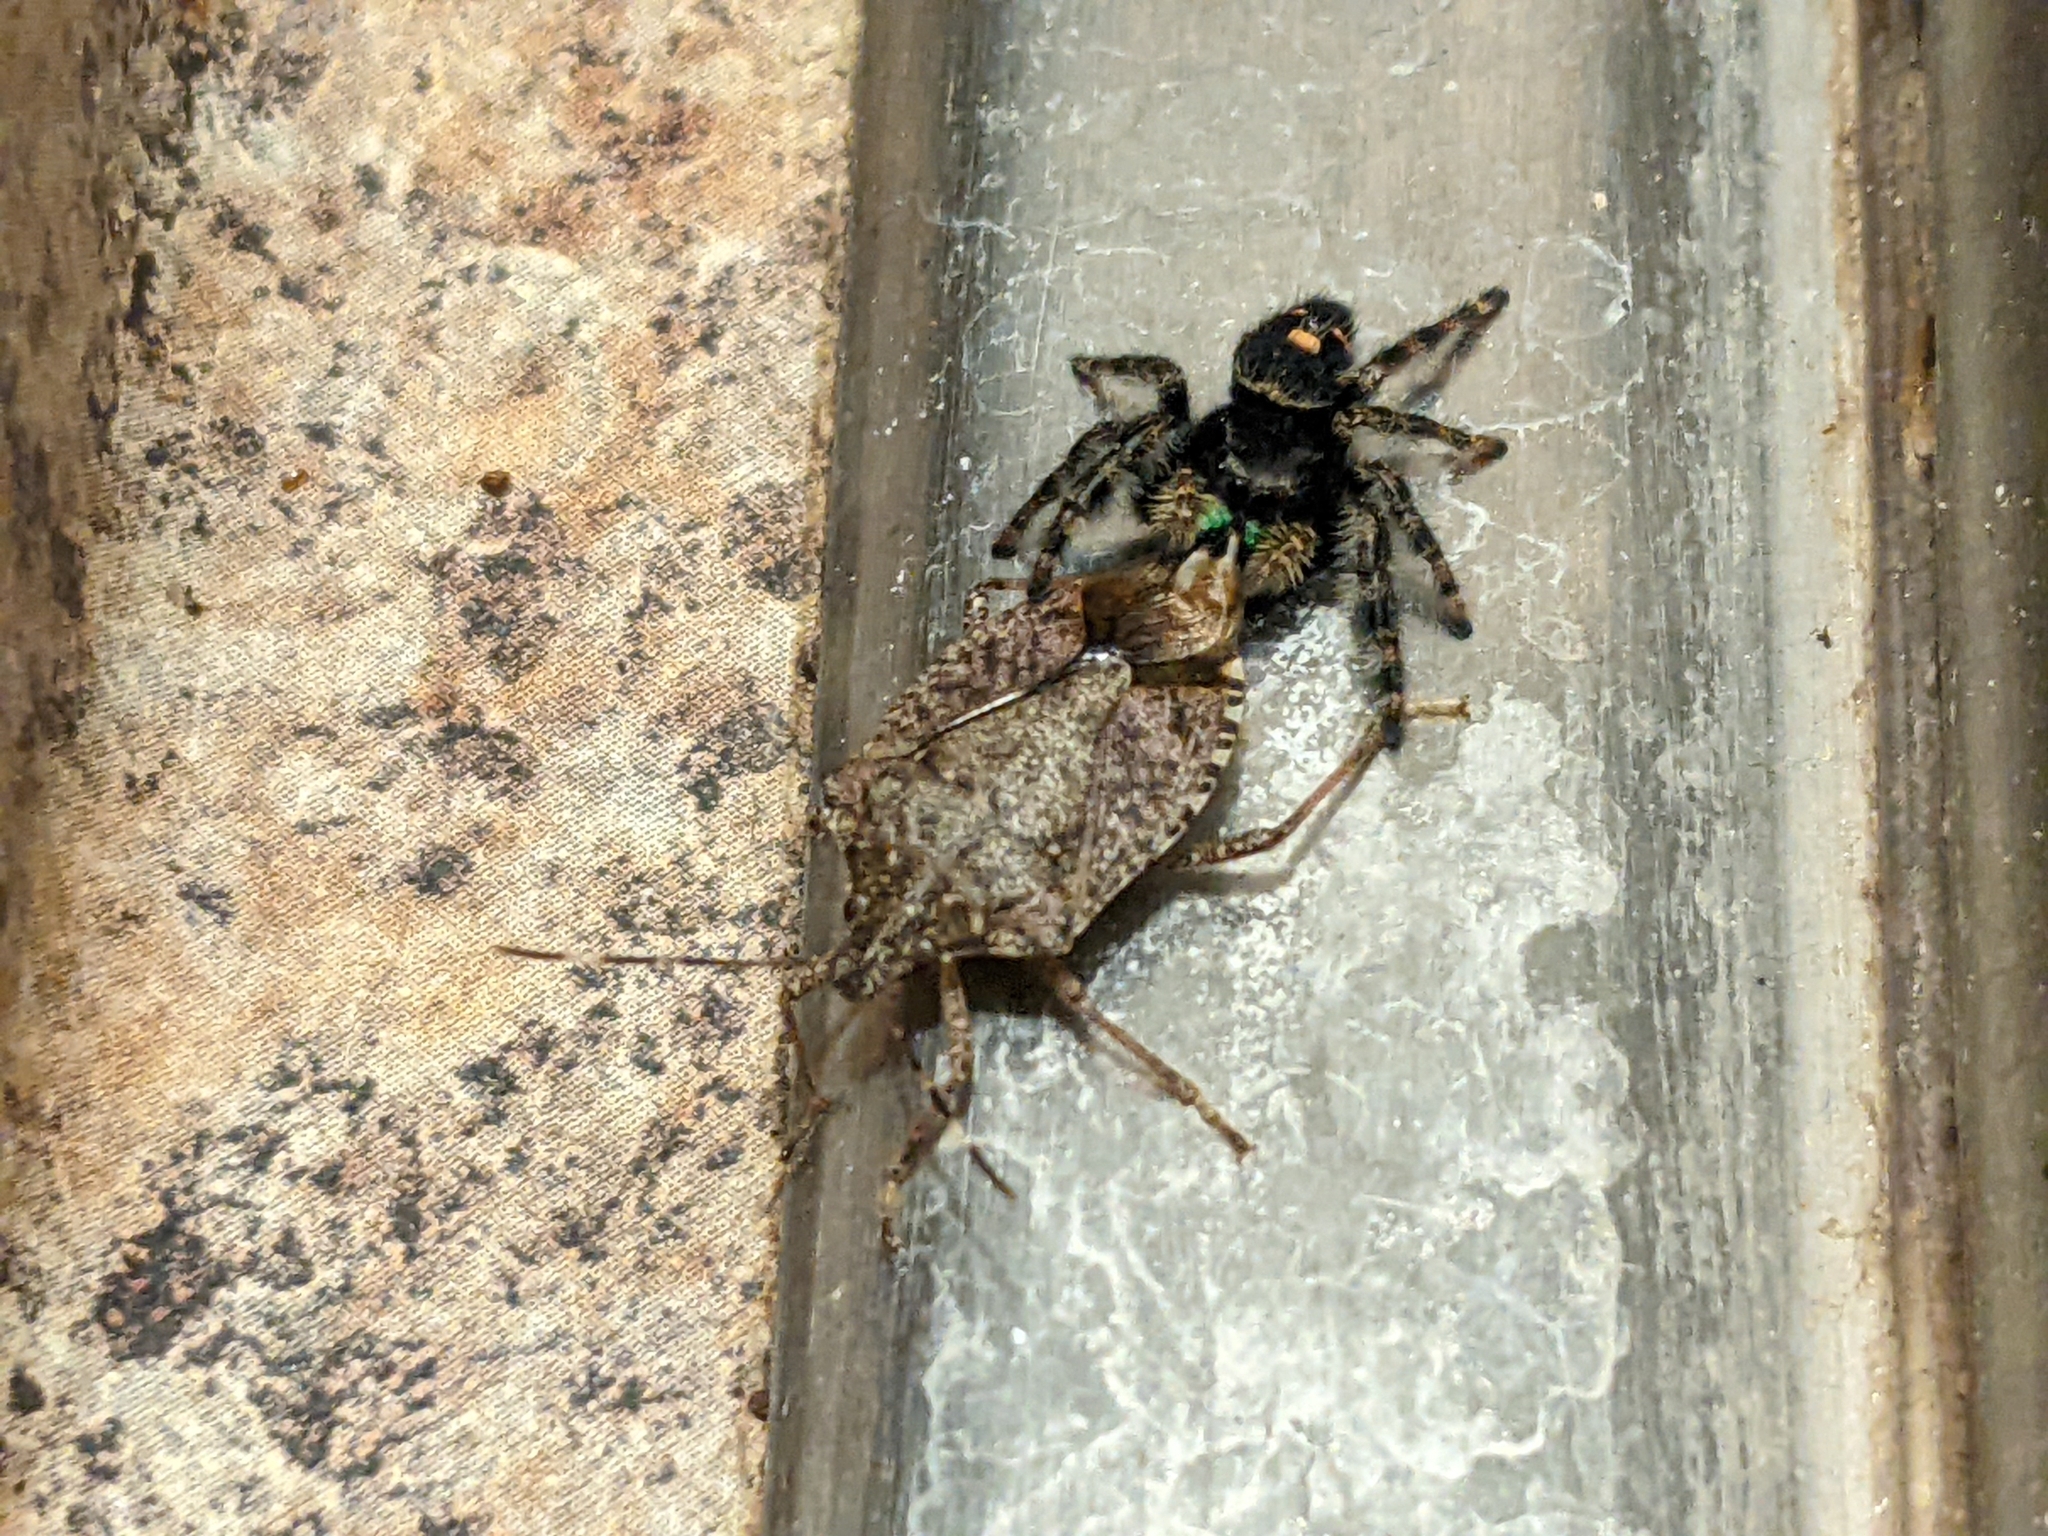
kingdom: Animalia
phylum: Arthropoda
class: Arachnida
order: Araneae
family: Salticidae
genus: Phidippus
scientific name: Phidippus audax
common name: Bold jumper
